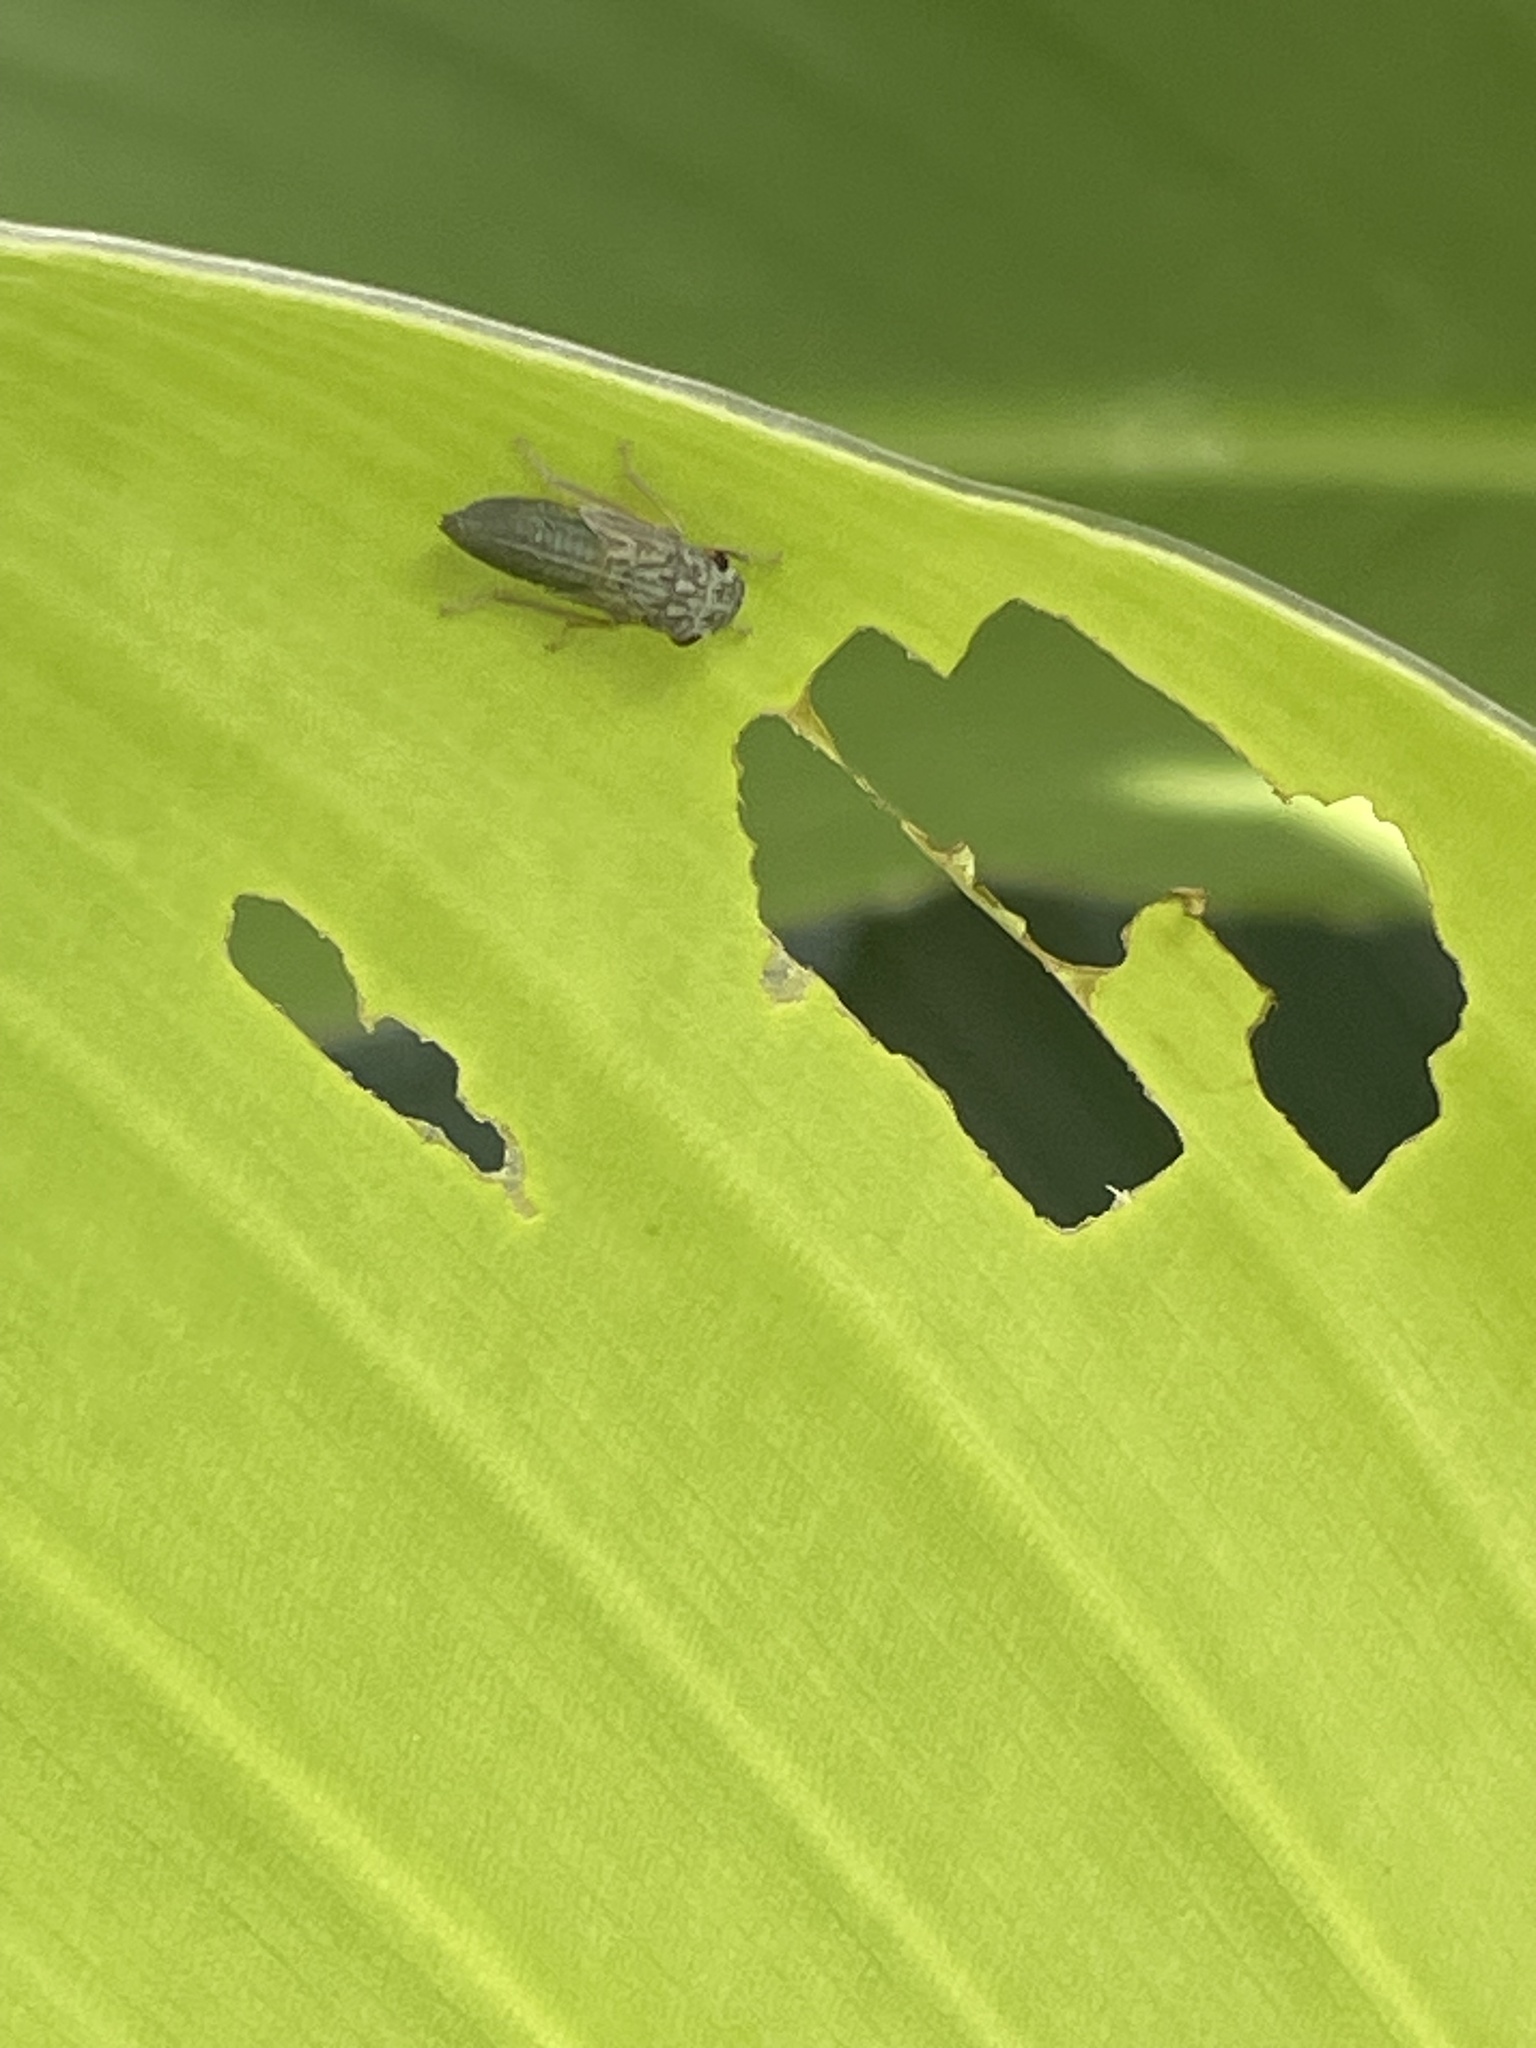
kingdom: Animalia
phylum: Arthropoda
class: Insecta
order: Hemiptera
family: Cicadellidae
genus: Oncometopia
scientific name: Oncometopia orbona
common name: Broad-headed sharpshooter
